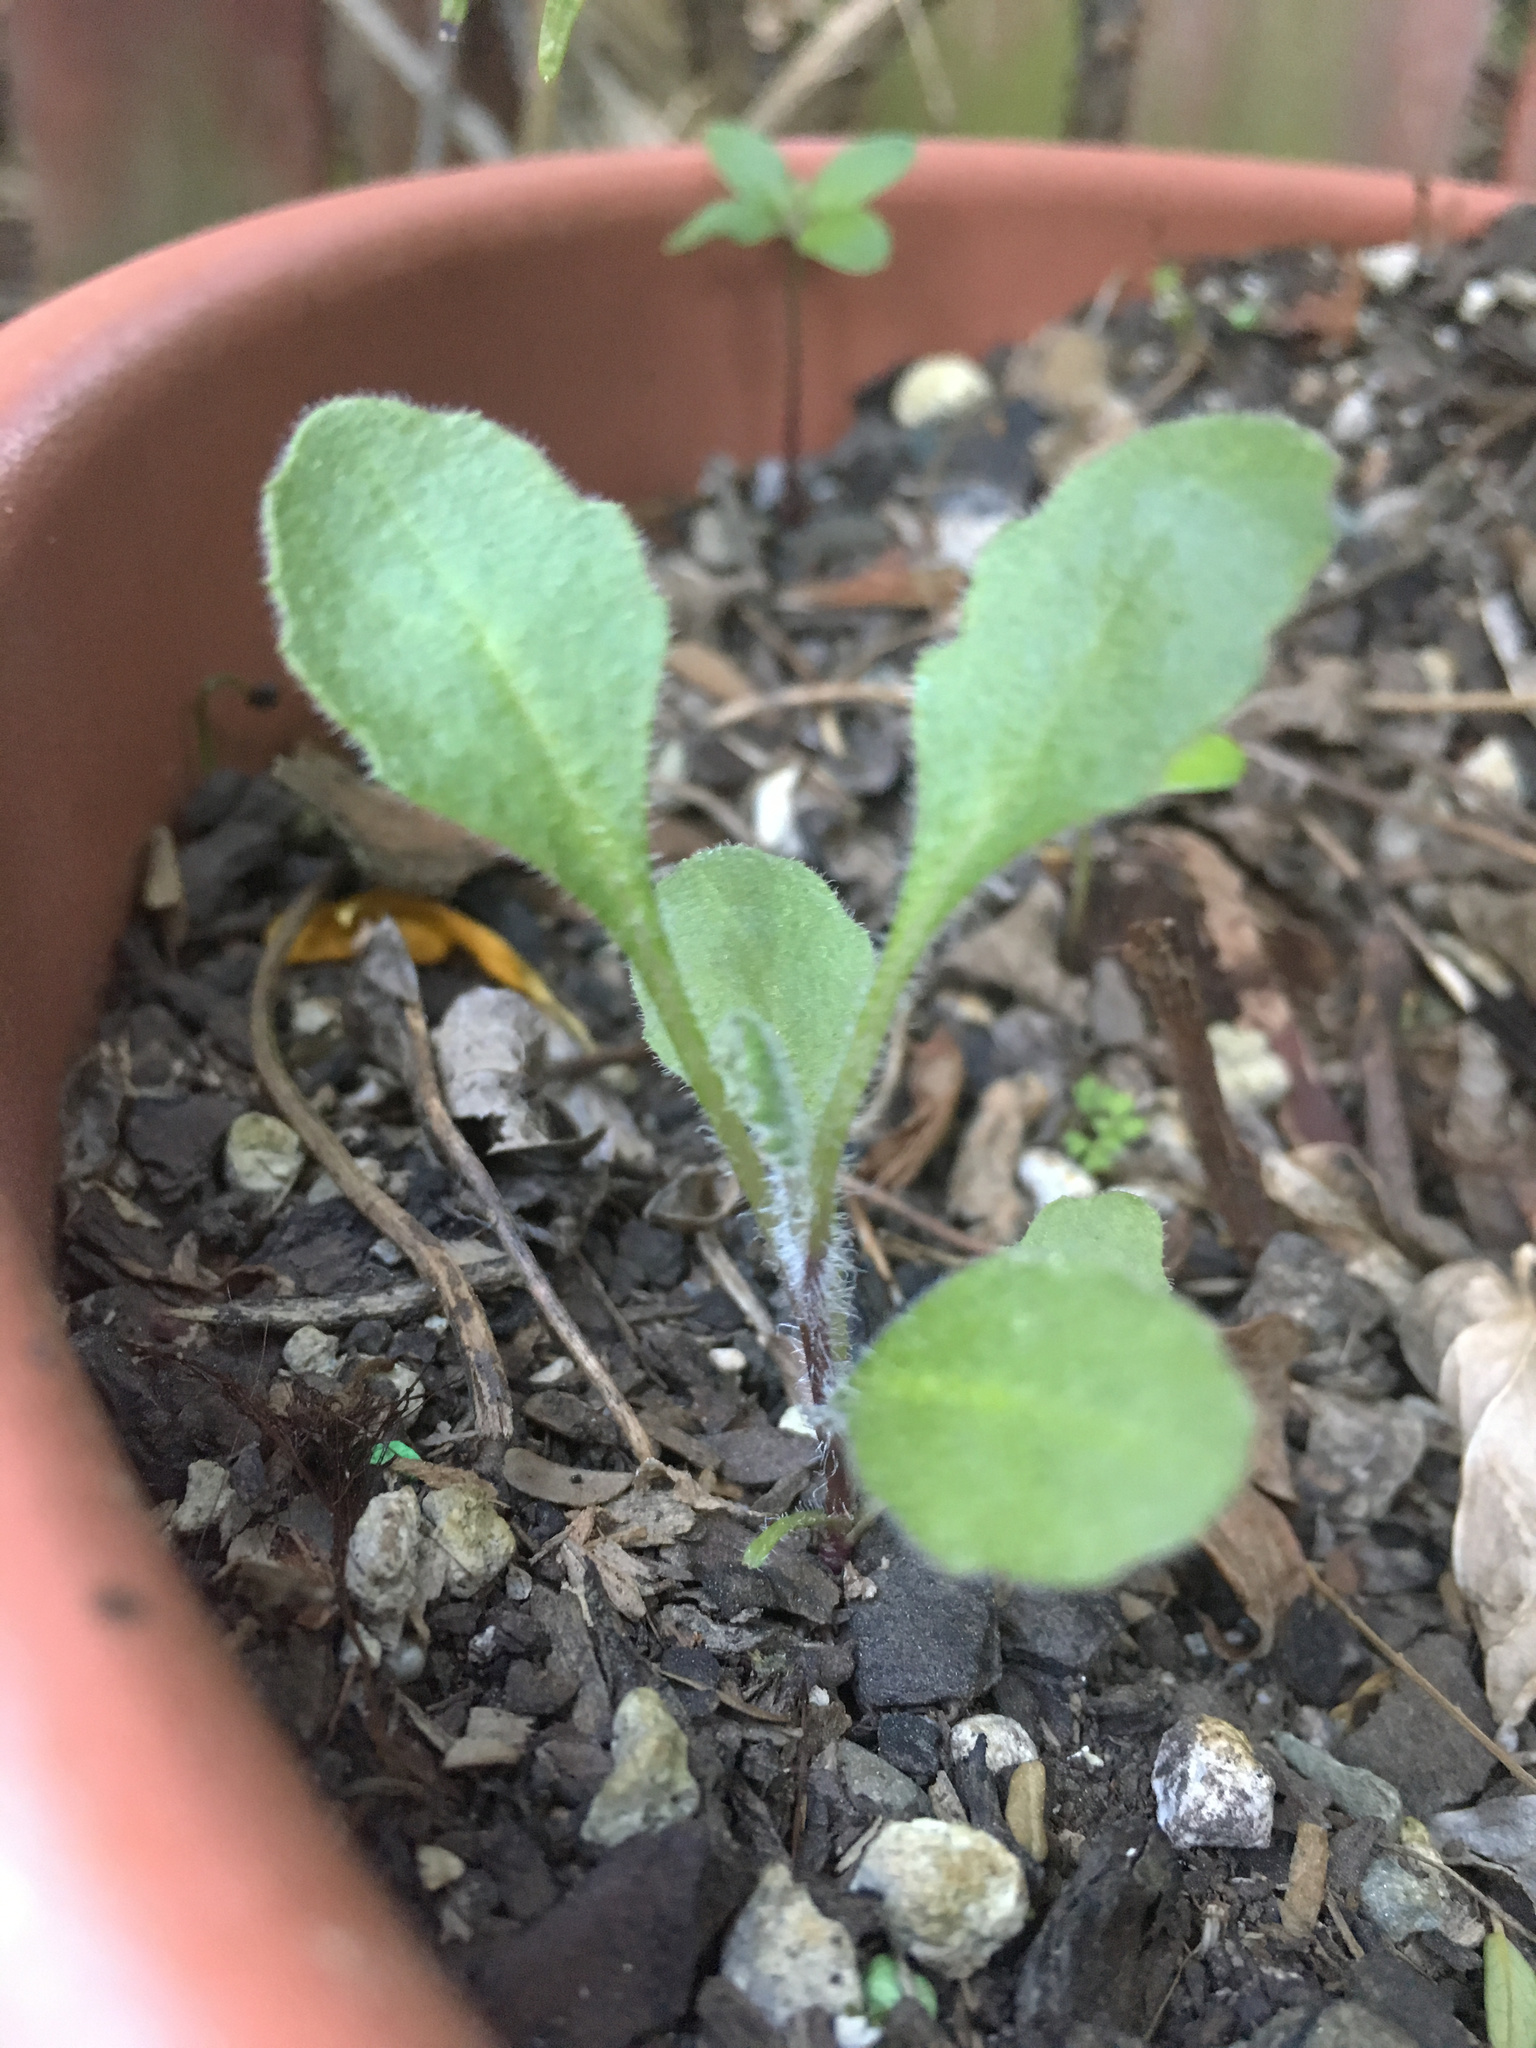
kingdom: Plantae
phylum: Tracheophyta
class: Magnoliopsida
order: Asterales
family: Asteraceae
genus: Senecio
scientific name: Senecio glomeratus
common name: Cutleaf burnweed
